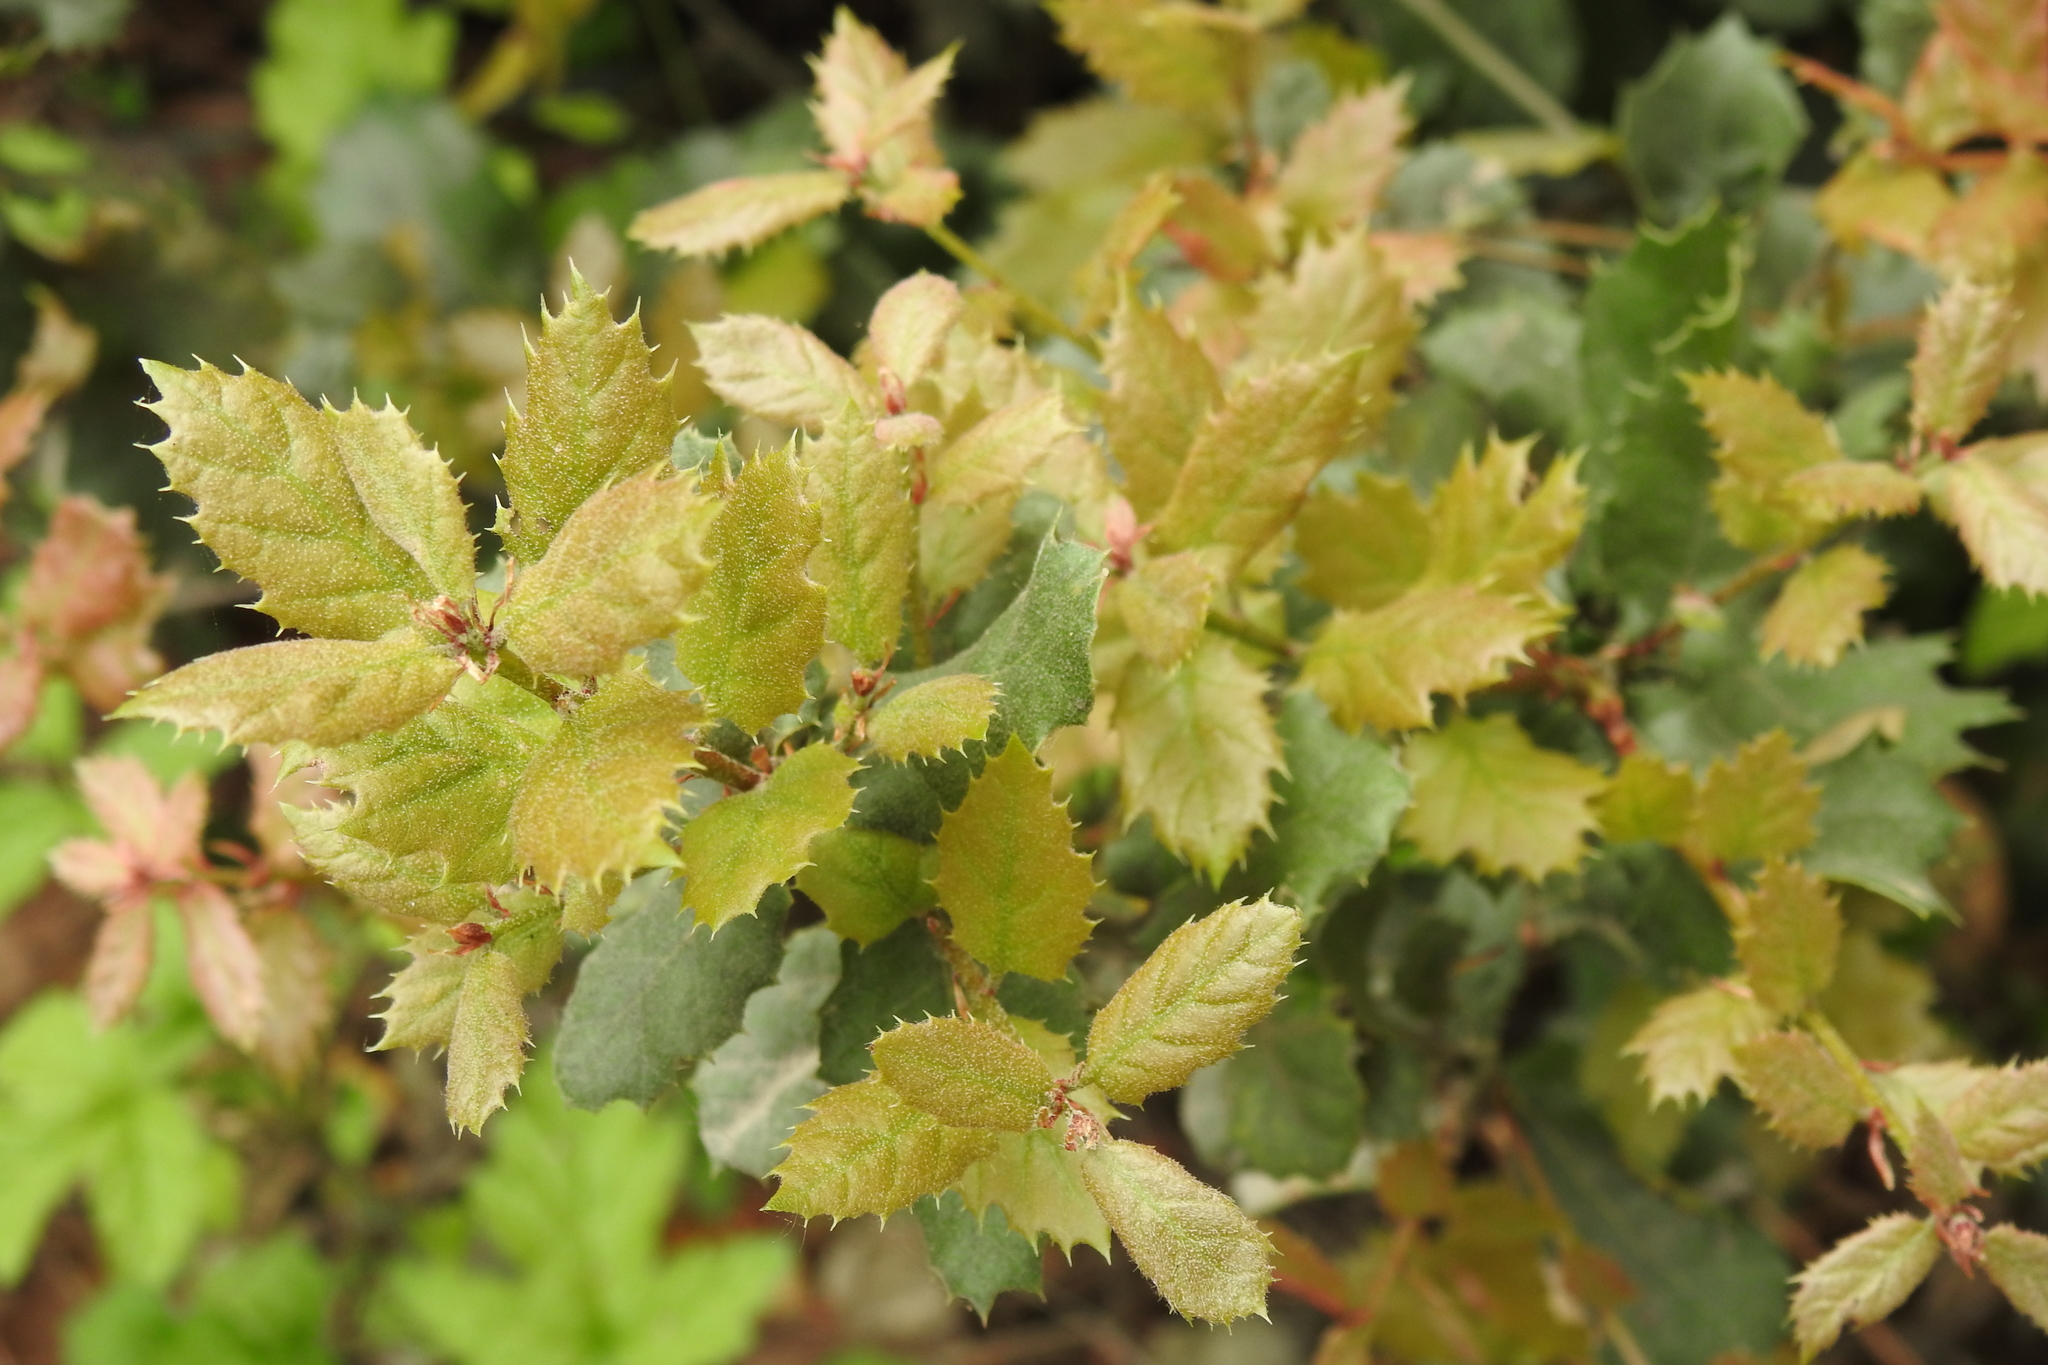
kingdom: Plantae
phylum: Tracheophyta
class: Magnoliopsida
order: Fagales
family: Fagaceae
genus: Quercus
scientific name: Quercus agrifolia
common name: California live oak
